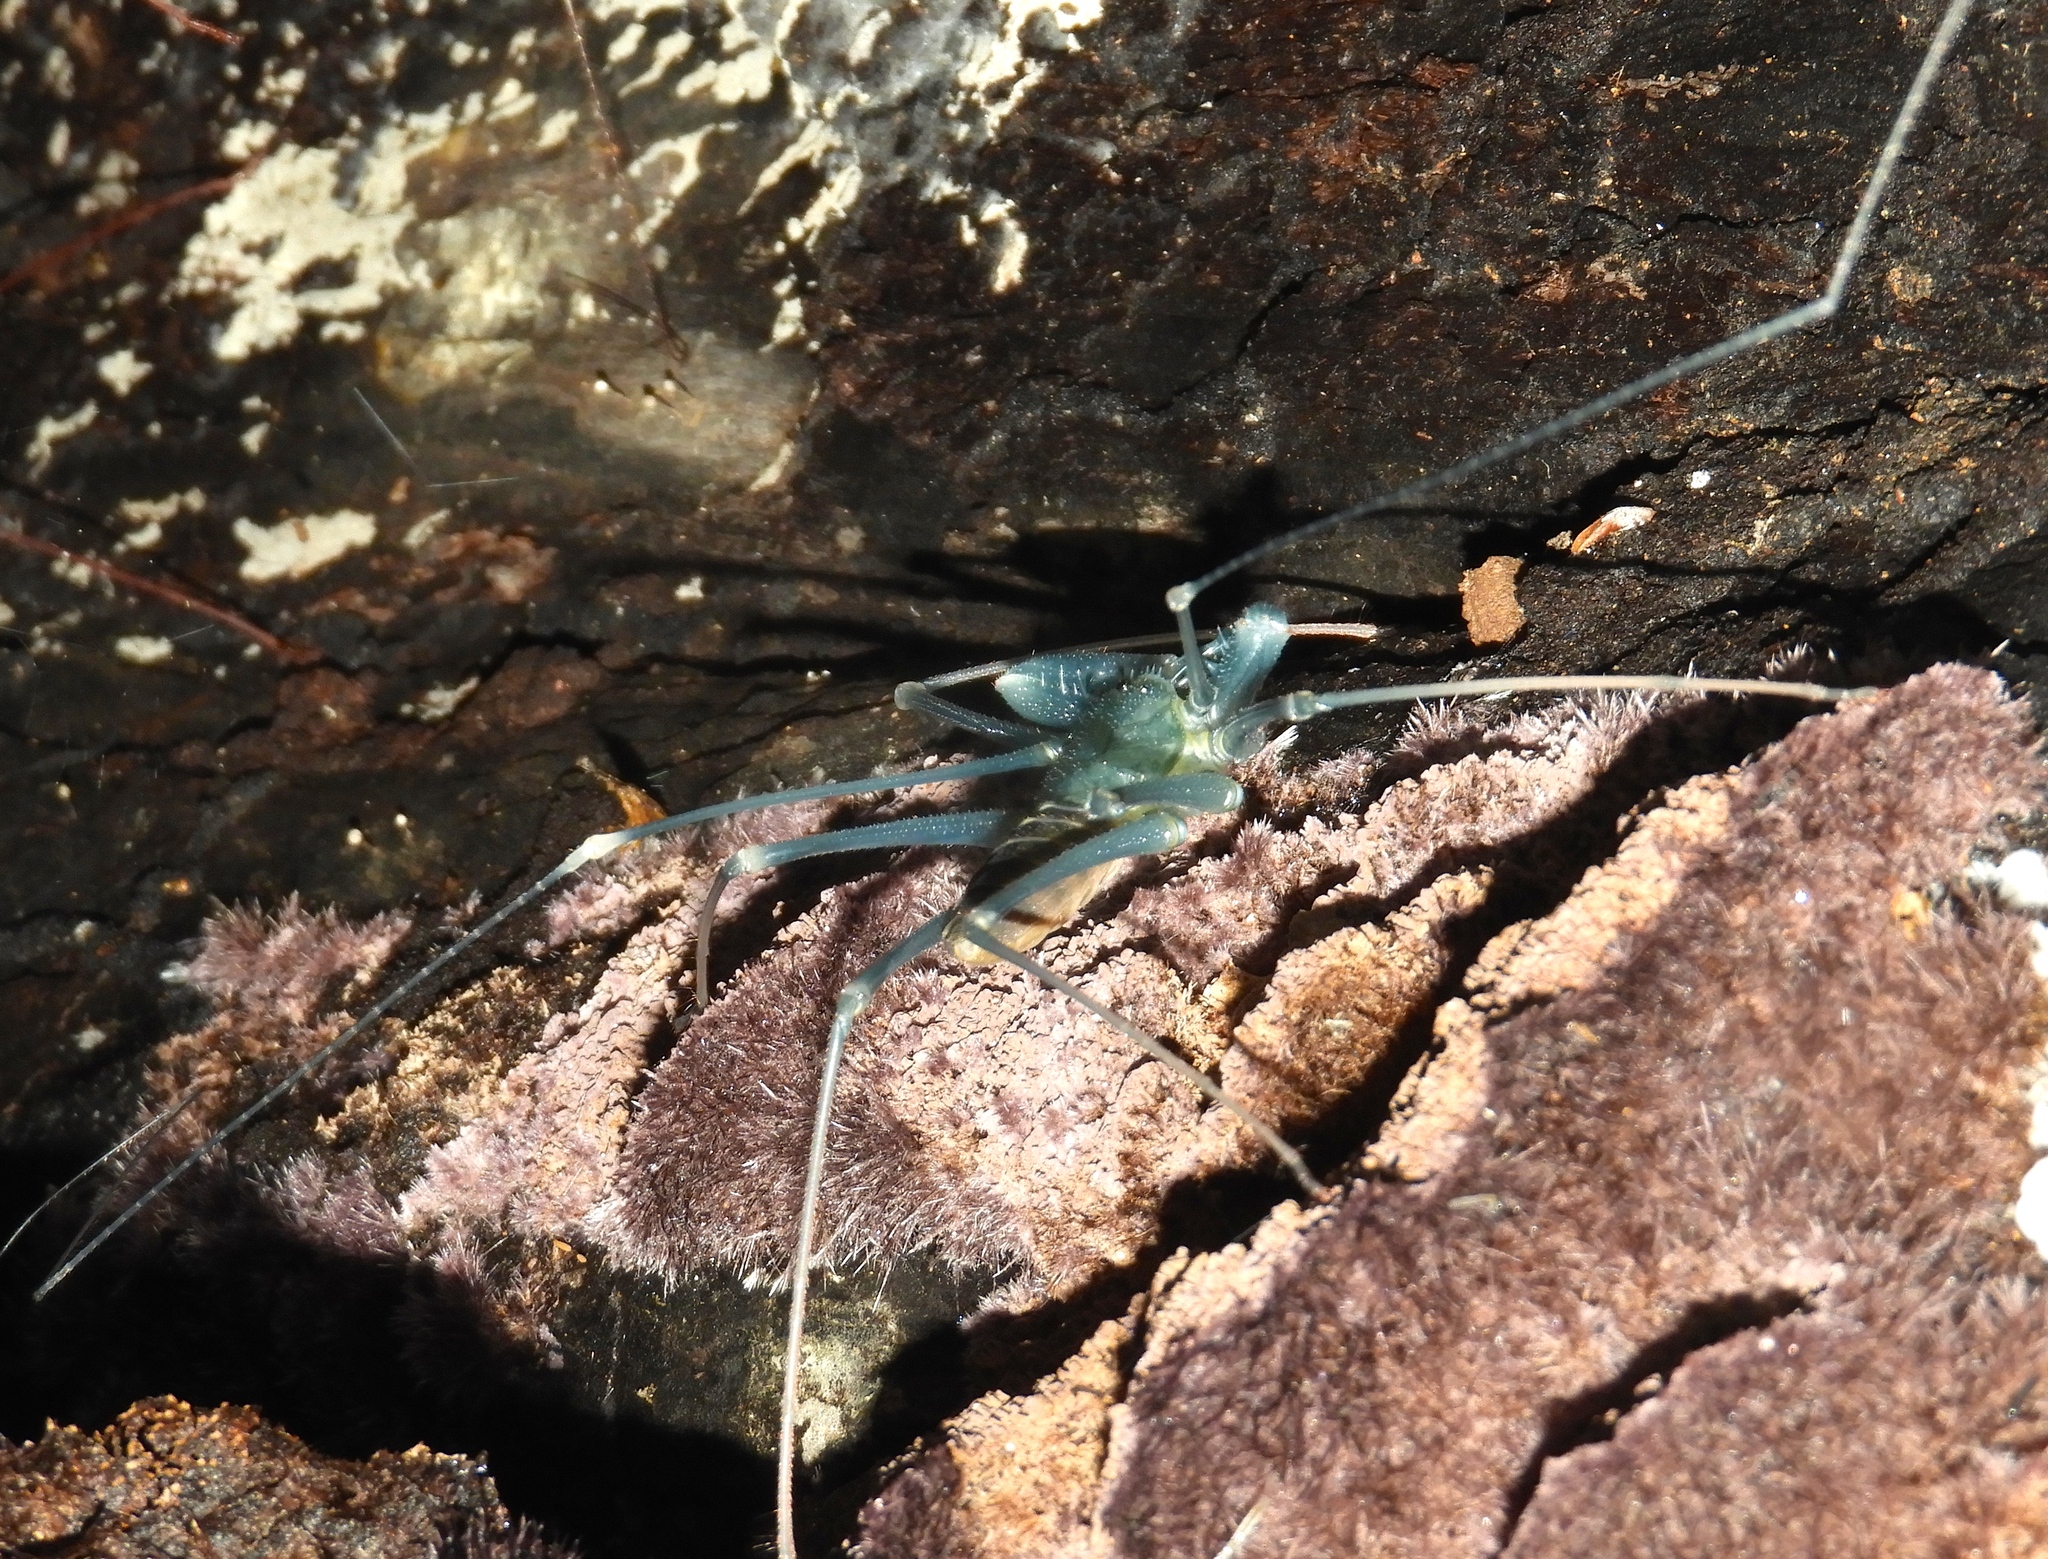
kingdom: Animalia
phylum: Arthropoda
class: Arachnida
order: Amblypygi
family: Phrynidae
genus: Acanthophrynus
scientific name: Acanthophrynus coronatus
